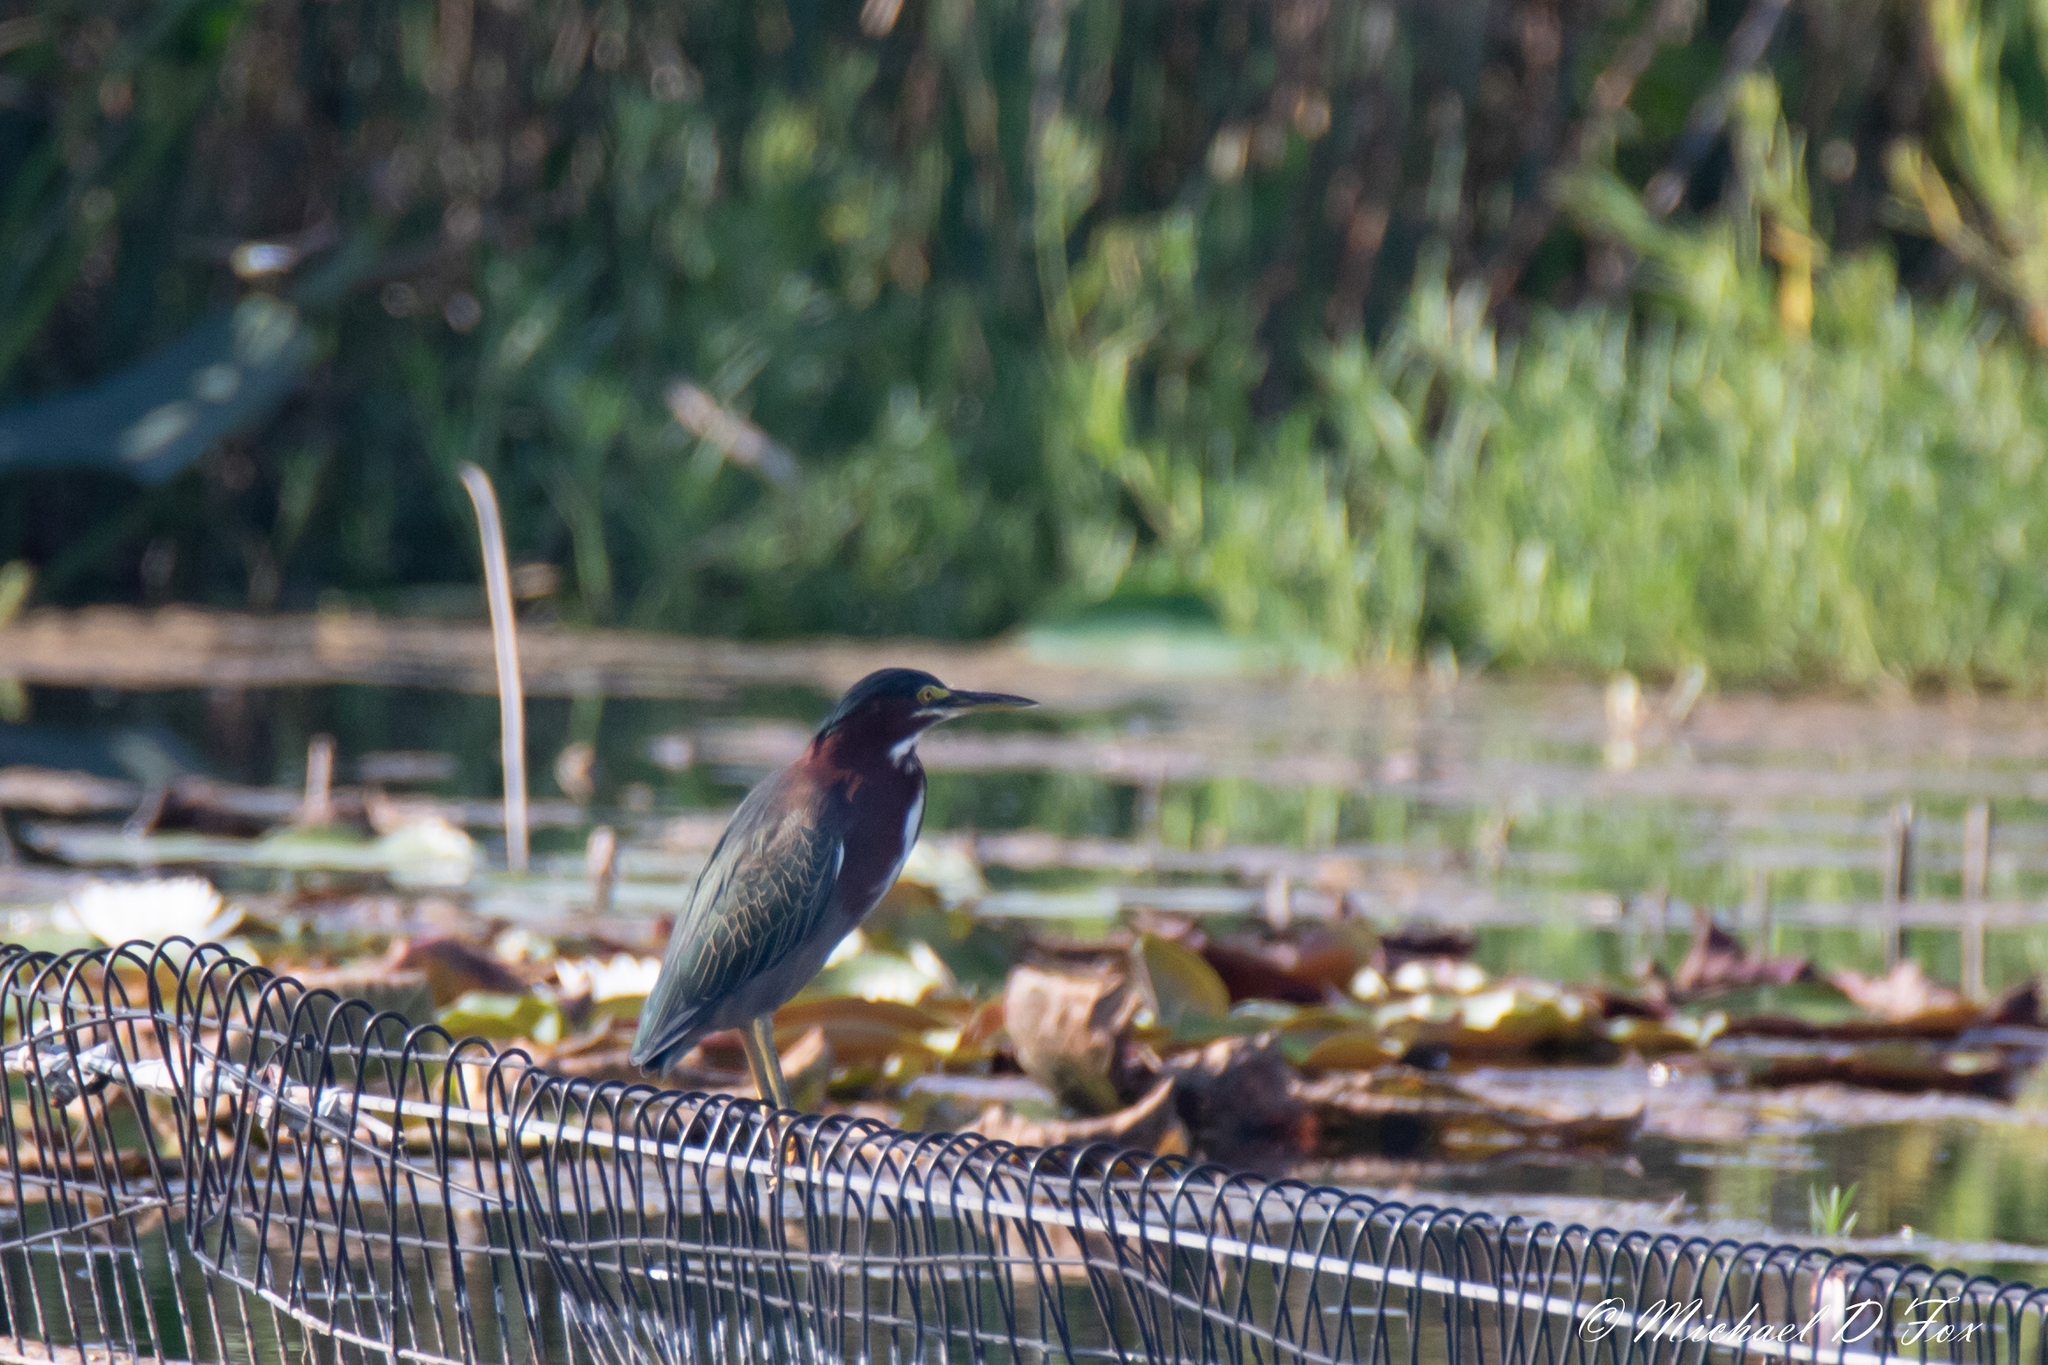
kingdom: Animalia
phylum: Chordata
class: Aves
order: Pelecaniformes
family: Ardeidae
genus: Butorides
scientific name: Butorides virescens
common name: Green heron
